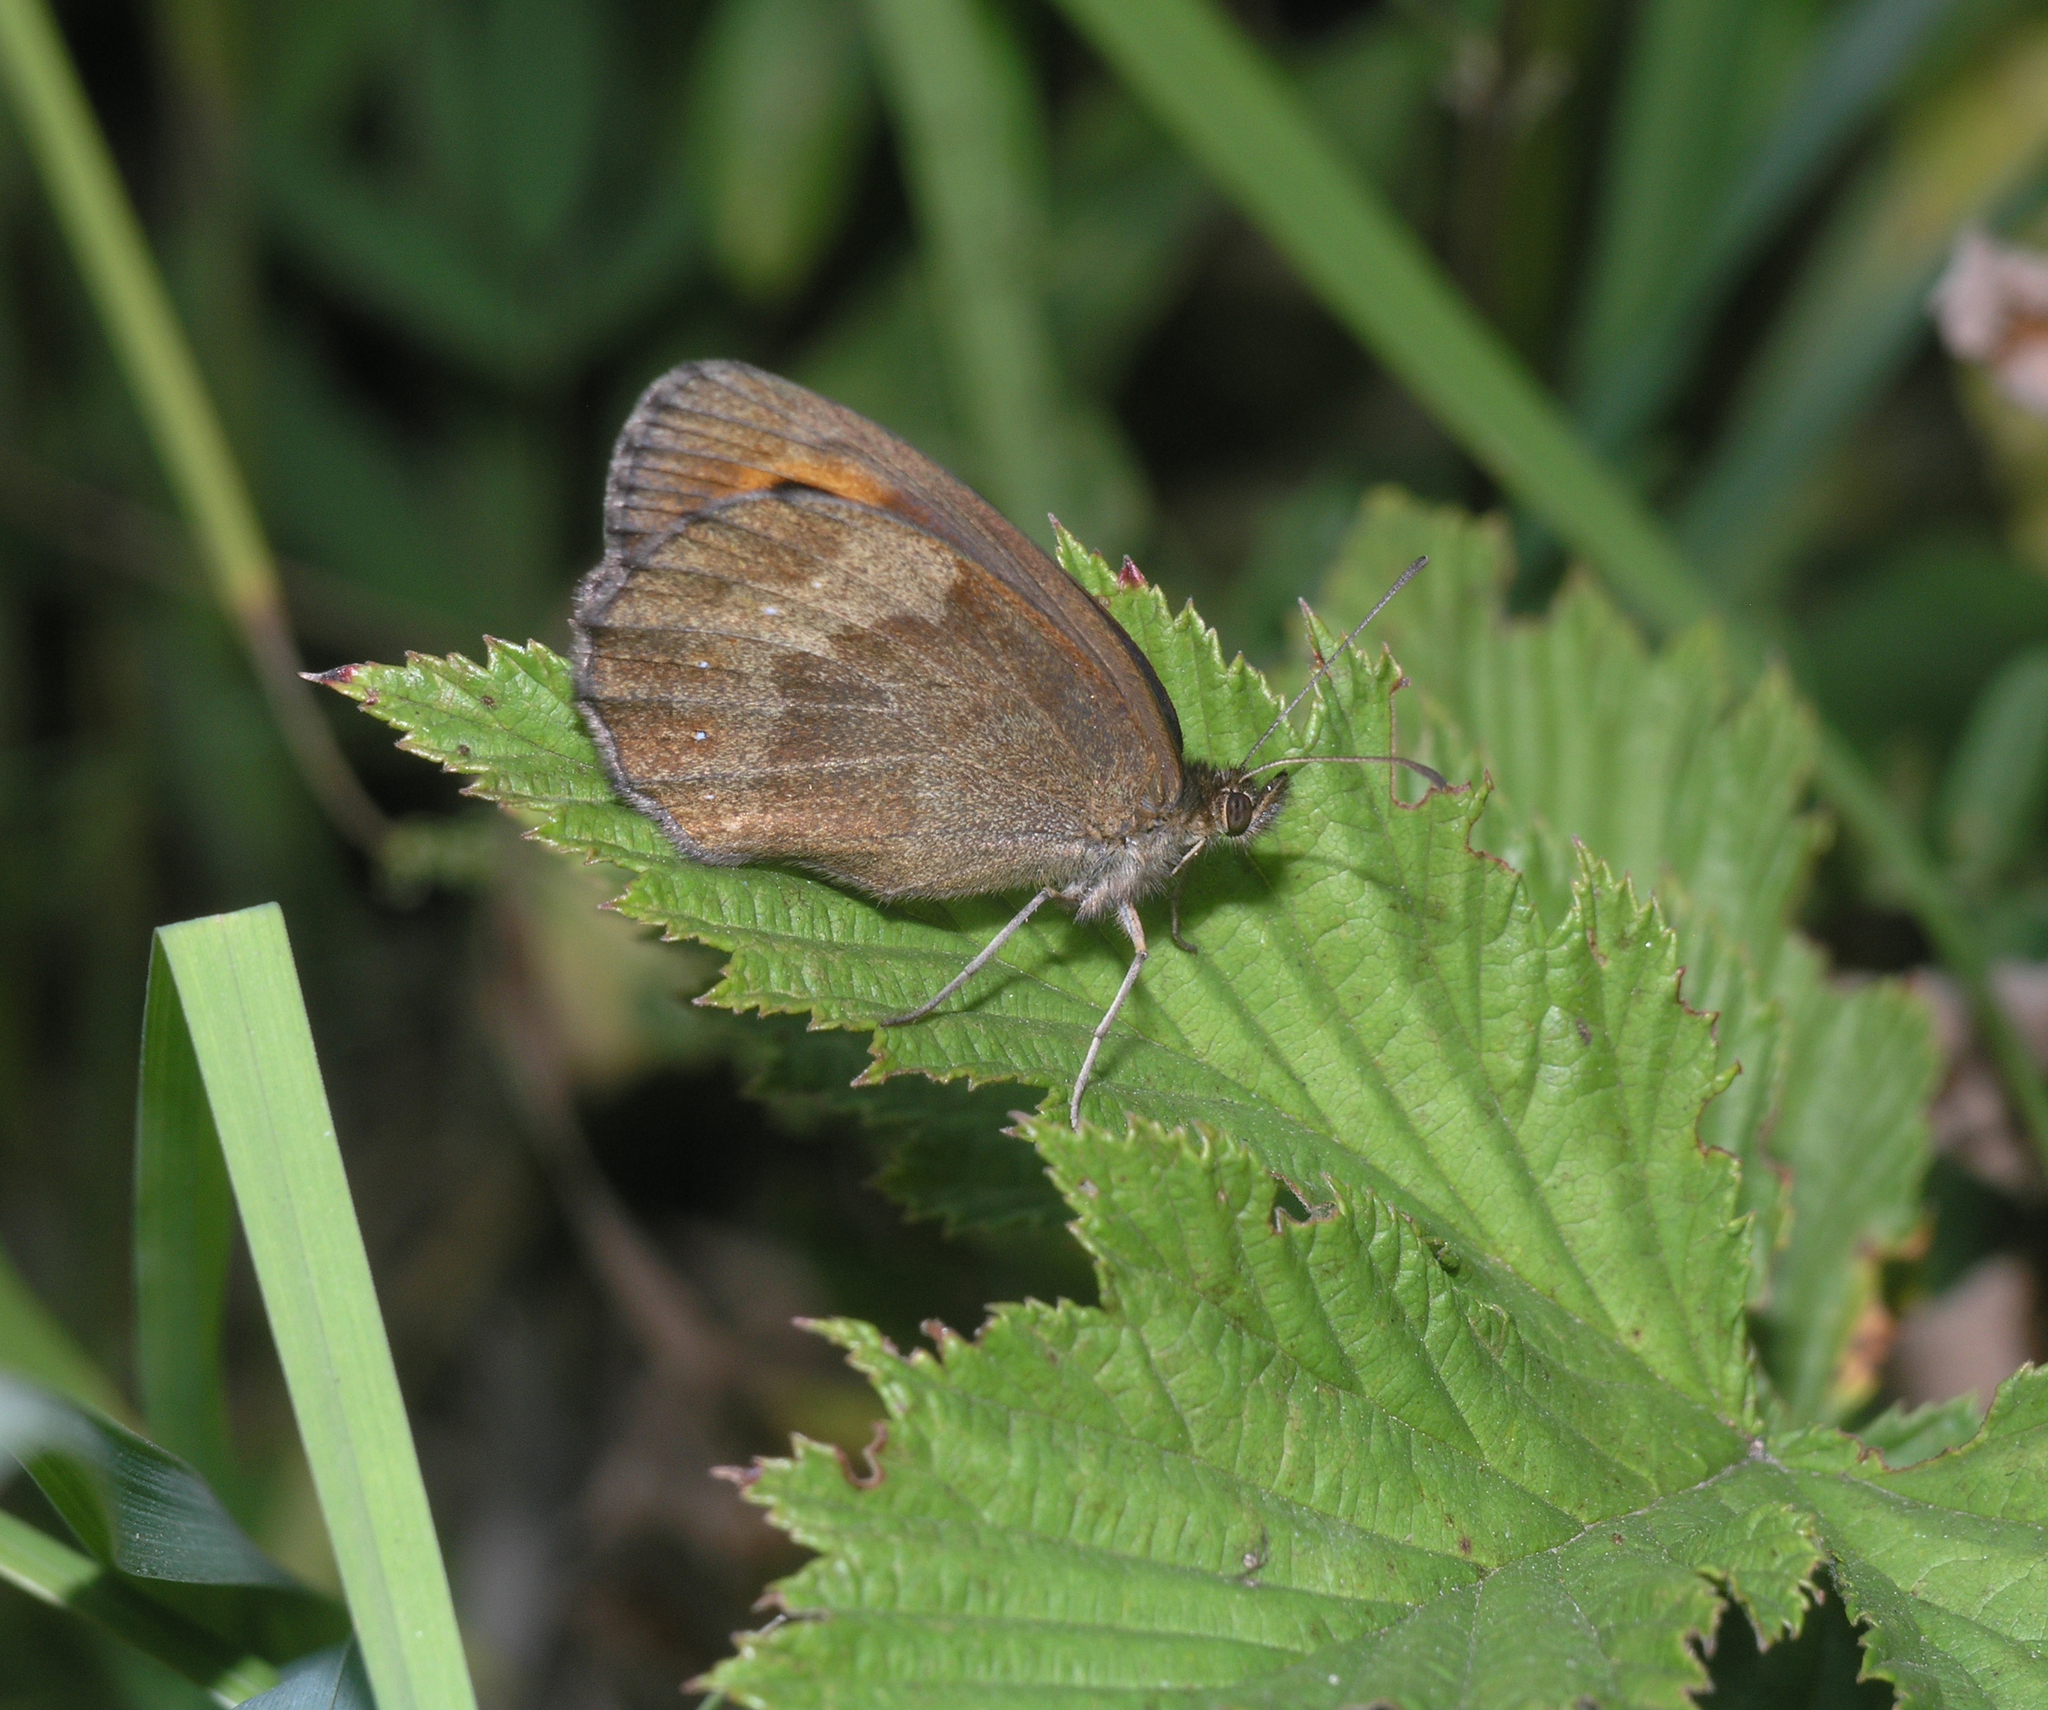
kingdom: Animalia
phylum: Arthropoda
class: Insecta
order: Lepidoptera
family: Nymphalidae
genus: Erebia
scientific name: Erebia aethiops
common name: Scotch argus
